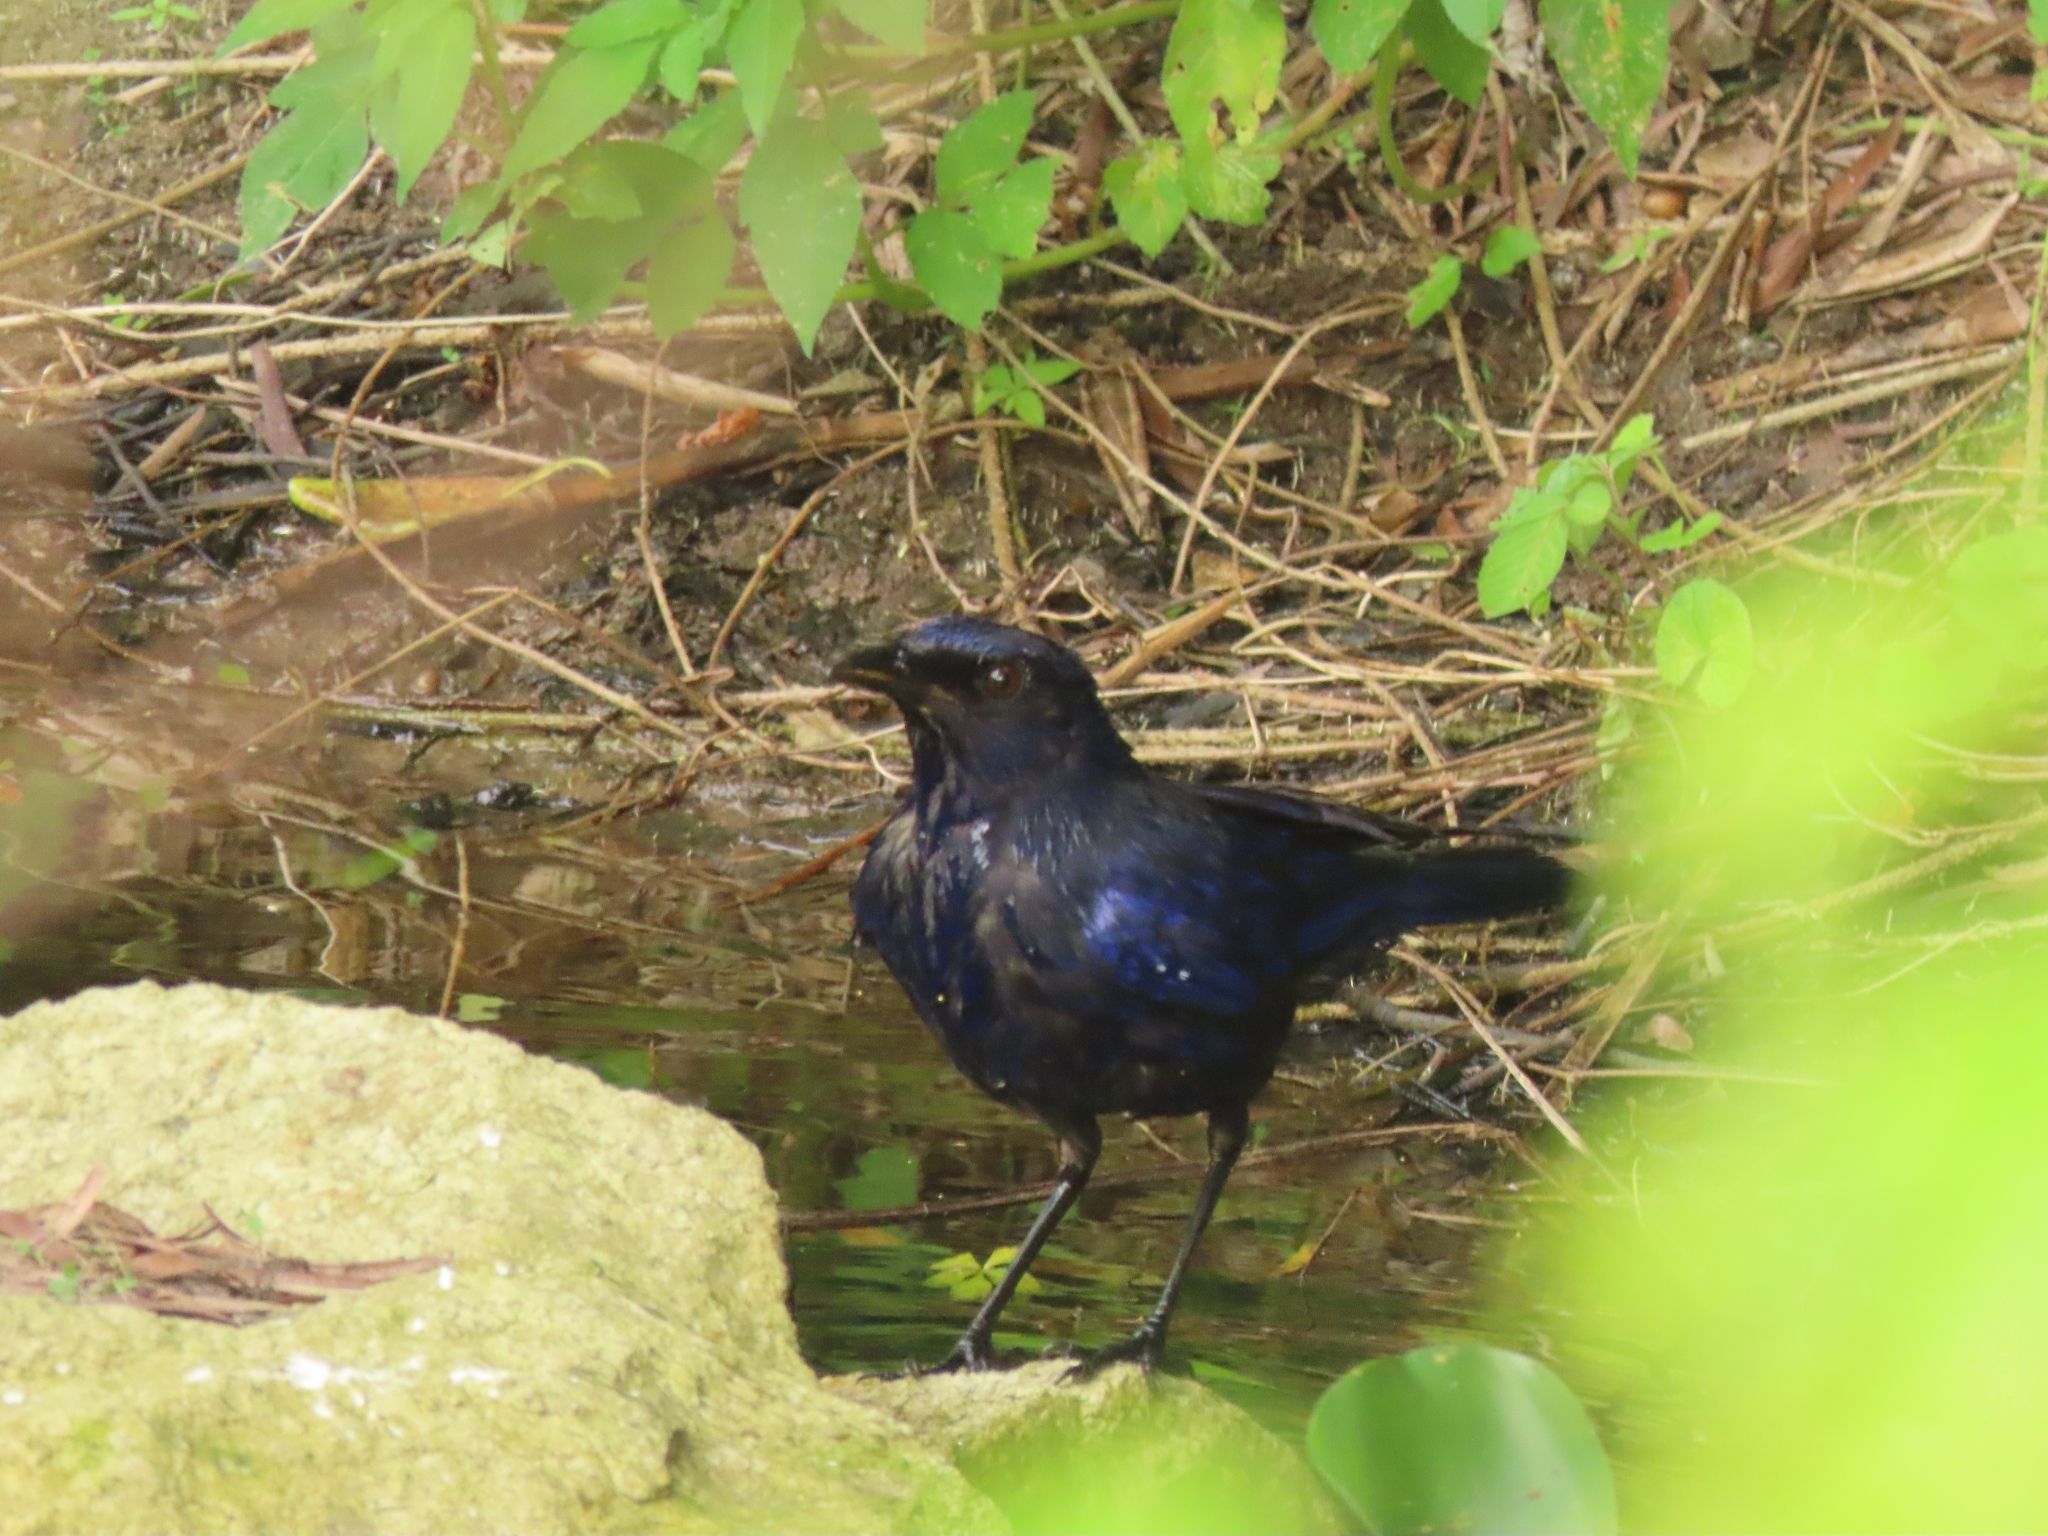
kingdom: Animalia
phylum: Chordata
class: Aves
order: Passeriformes
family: Muscicapidae
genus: Myophonus
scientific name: Myophonus caeruleus
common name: Blue whistling-thrush
